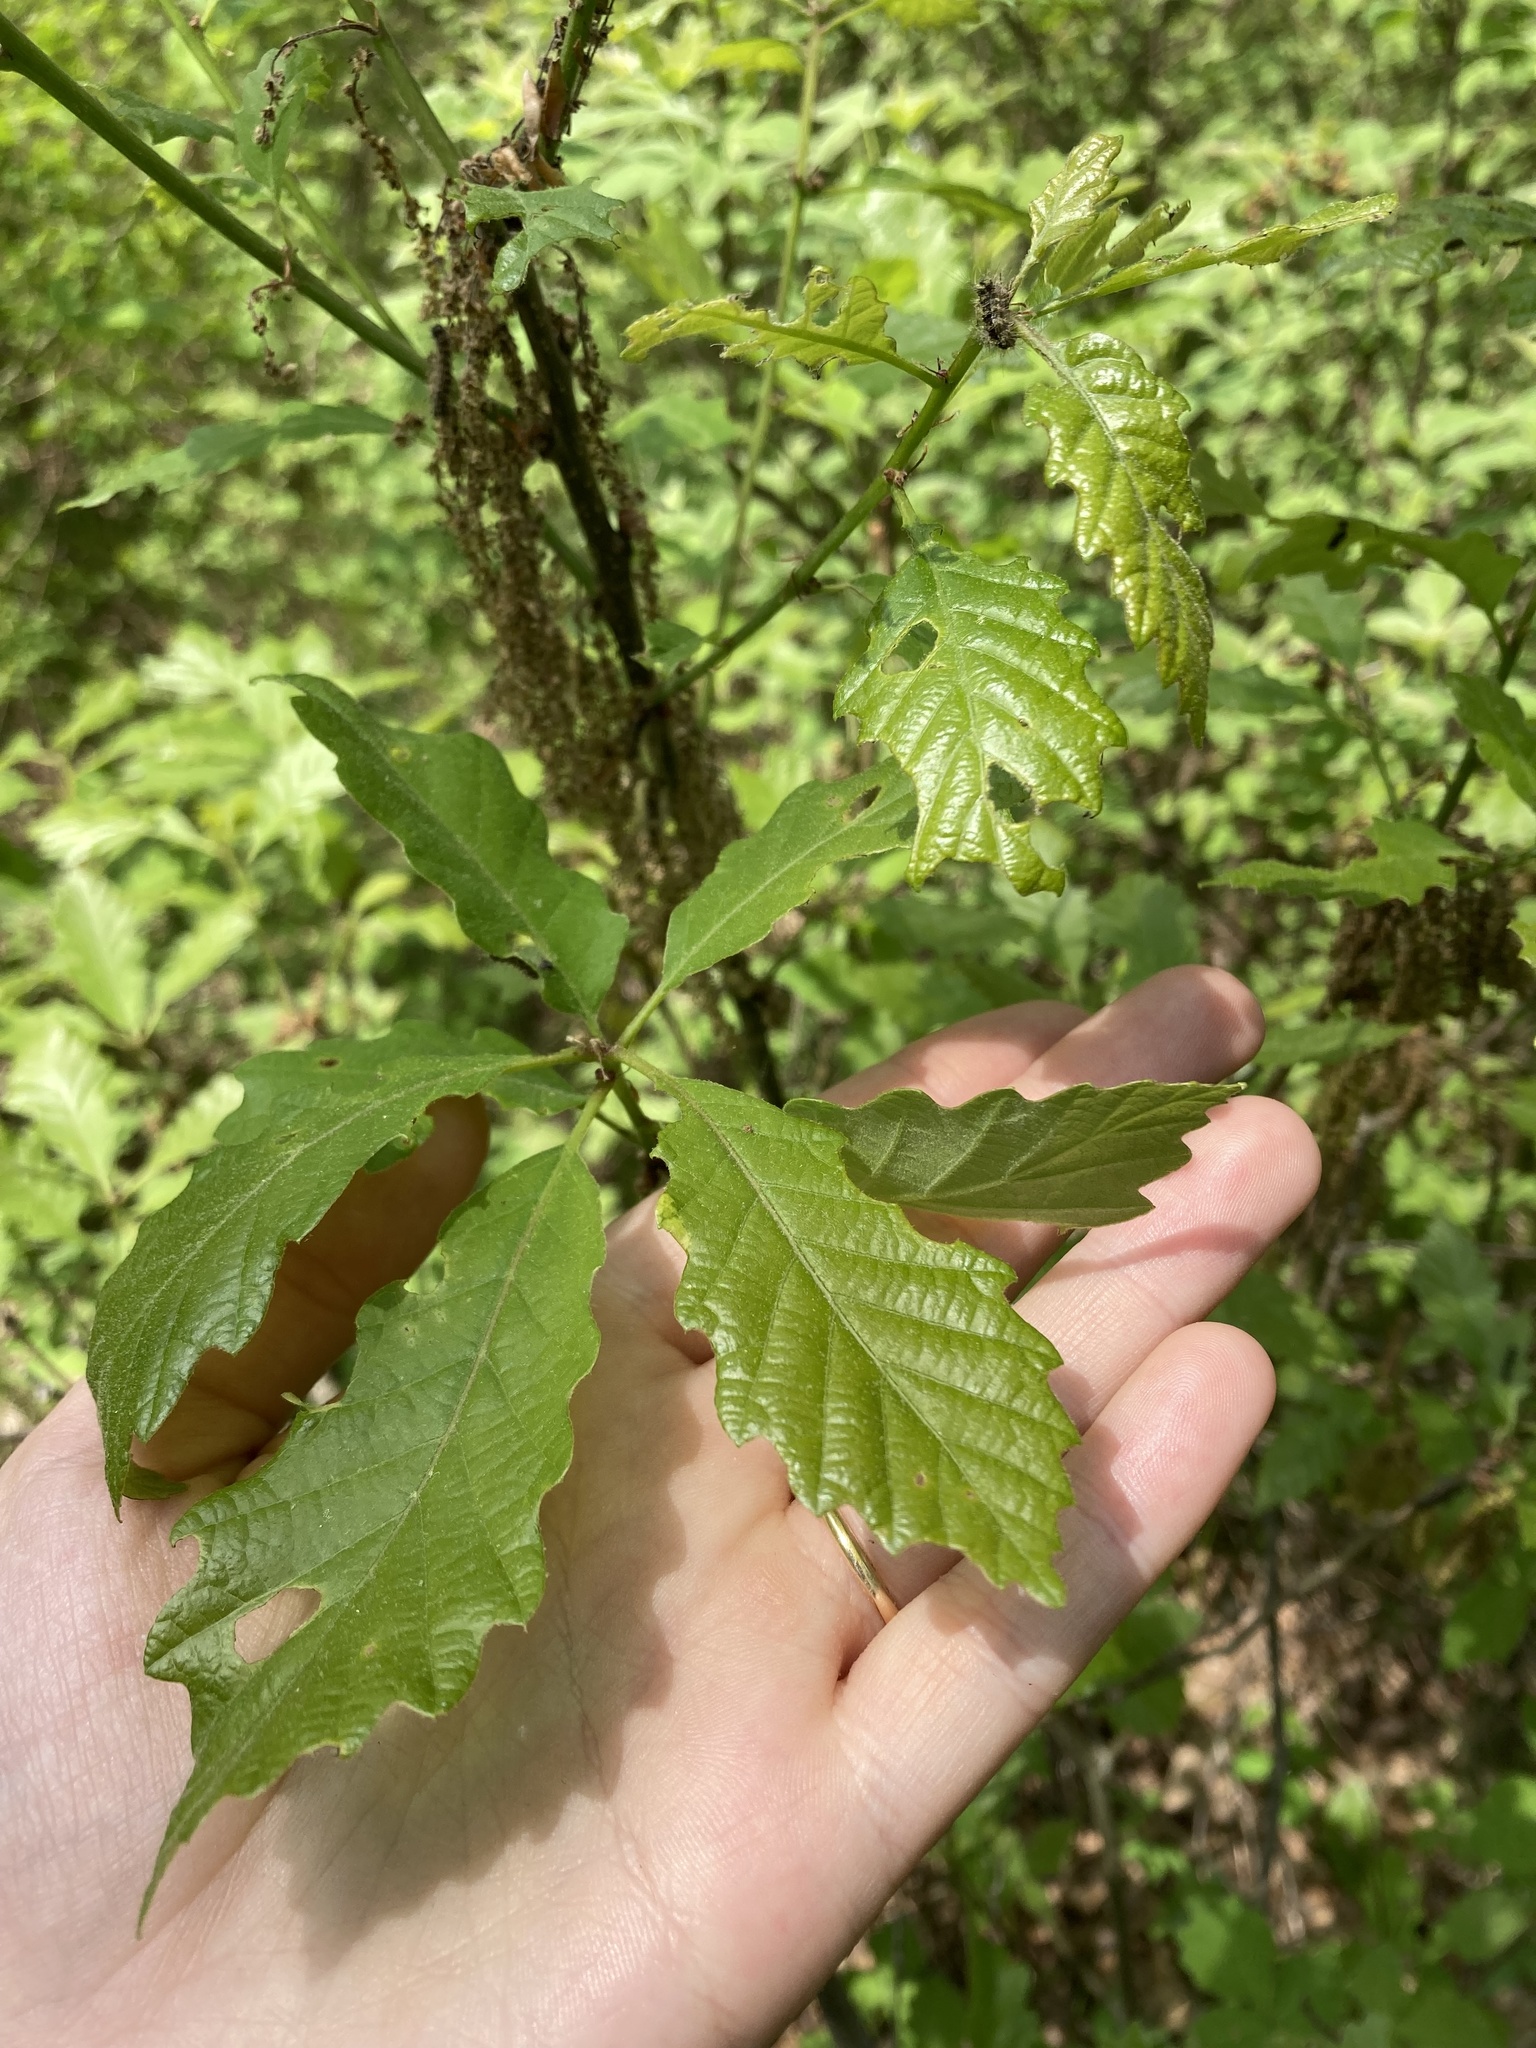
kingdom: Plantae
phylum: Tracheophyta
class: Magnoliopsida
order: Fagales
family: Fagaceae
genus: Quercus
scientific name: Quercus prinoides
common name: Dwarf chinkapin oak
